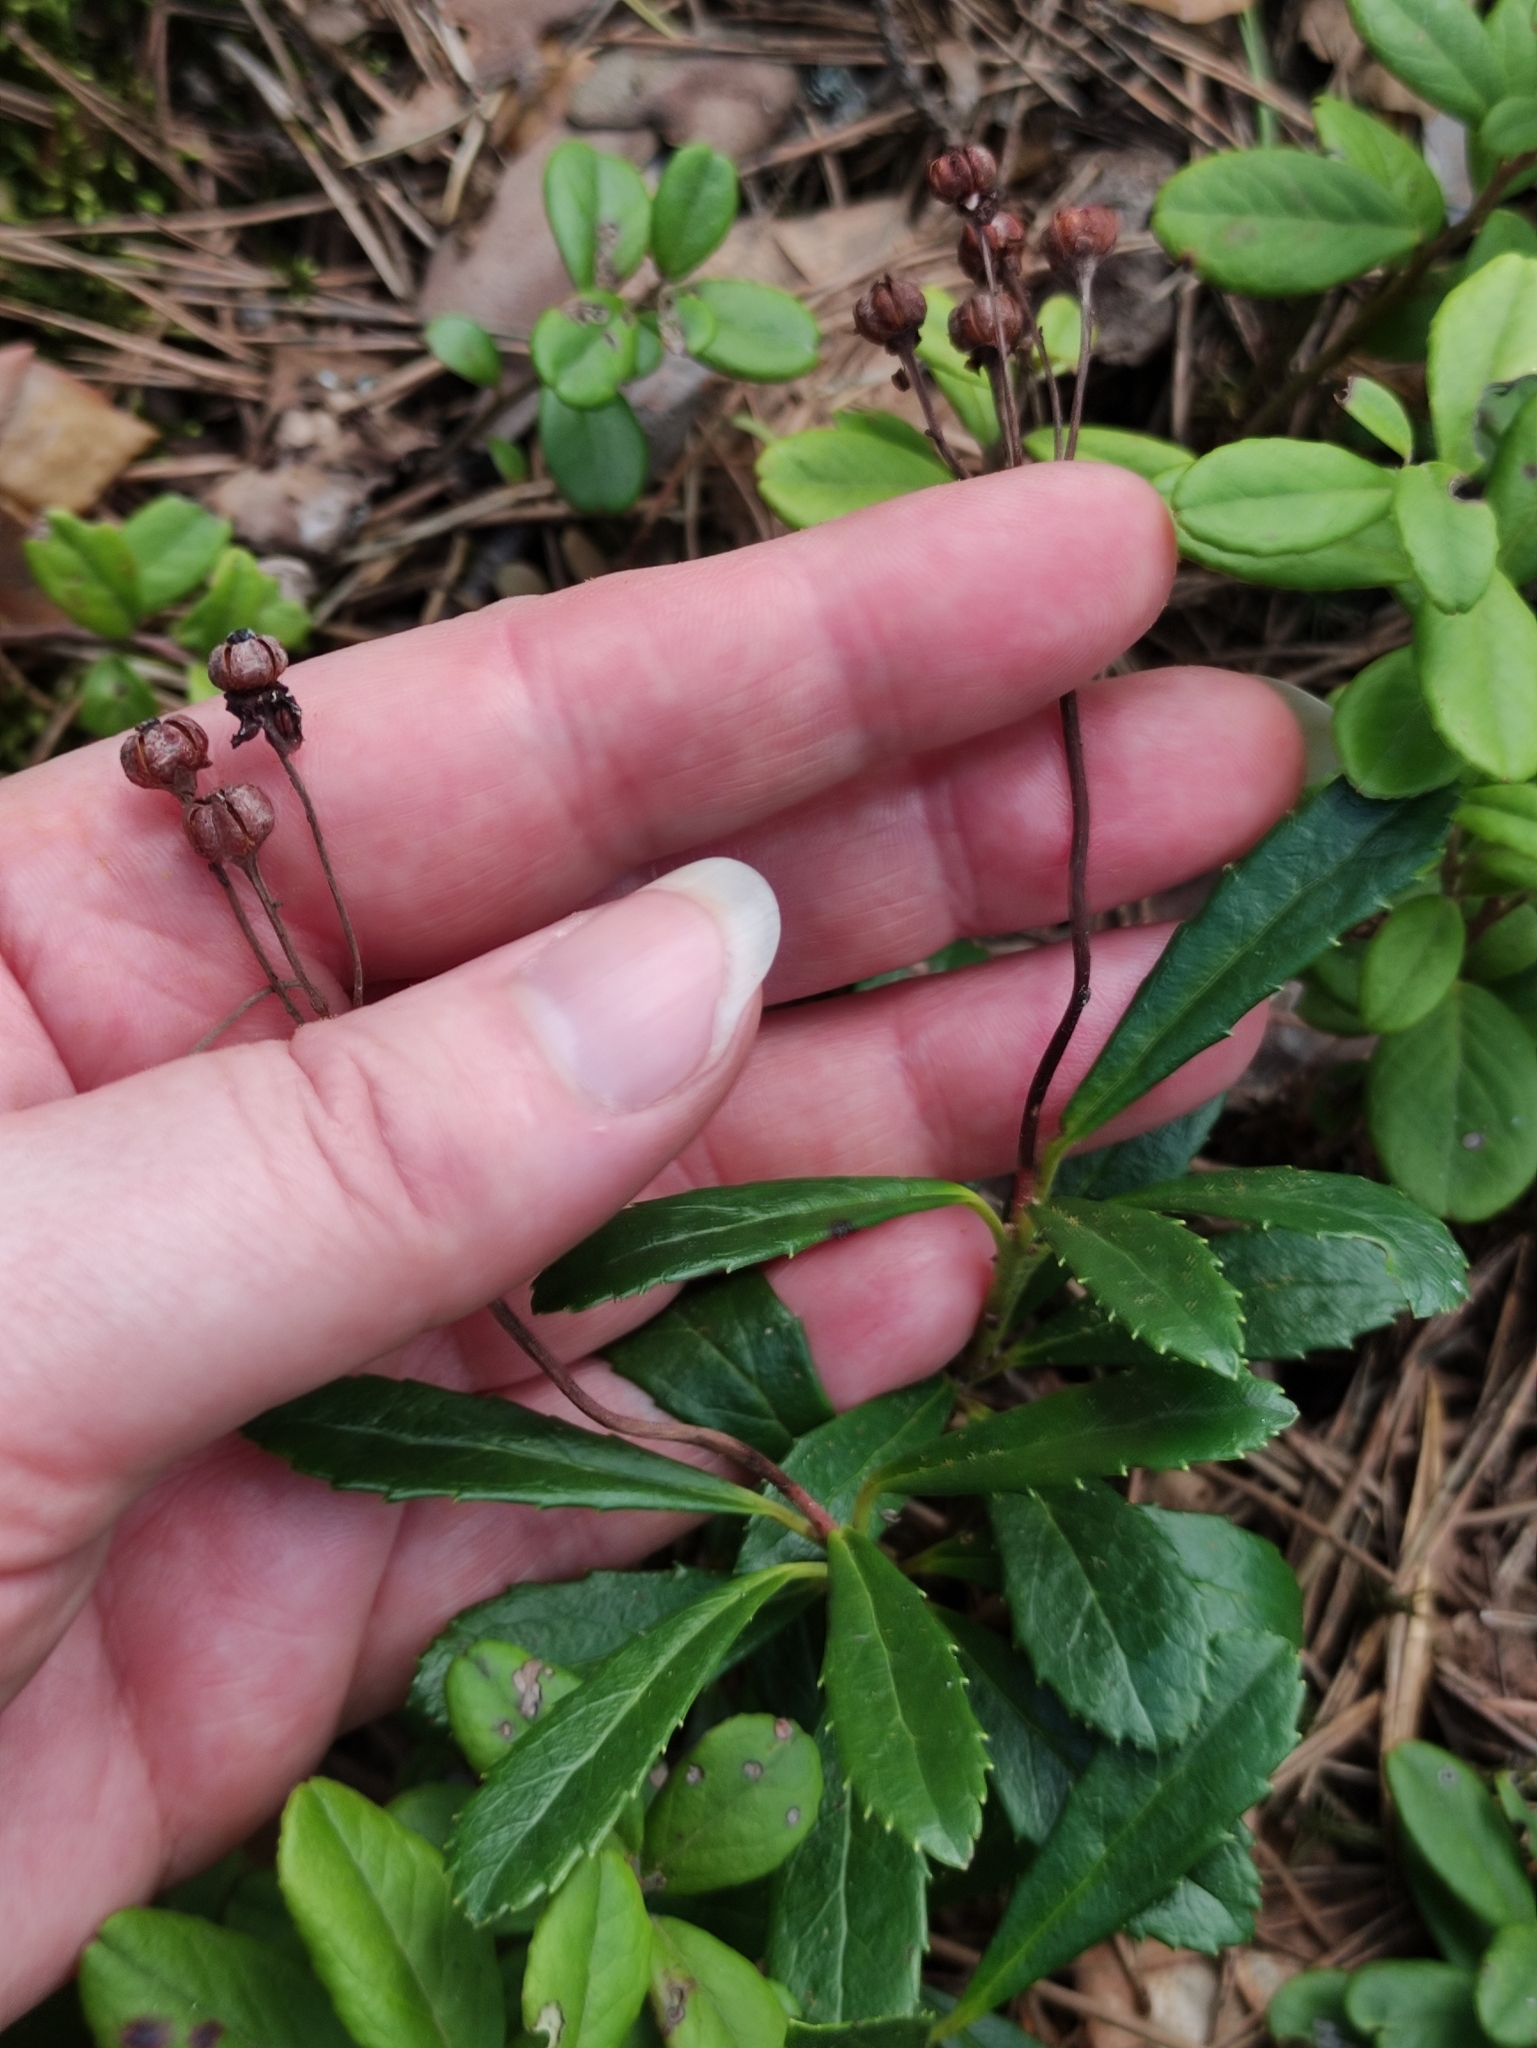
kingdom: Plantae
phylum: Tracheophyta
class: Magnoliopsida
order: Ericales
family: Ericaceae
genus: Chimaphila
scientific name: Chimaphila umbellata
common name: Pipsissewa
